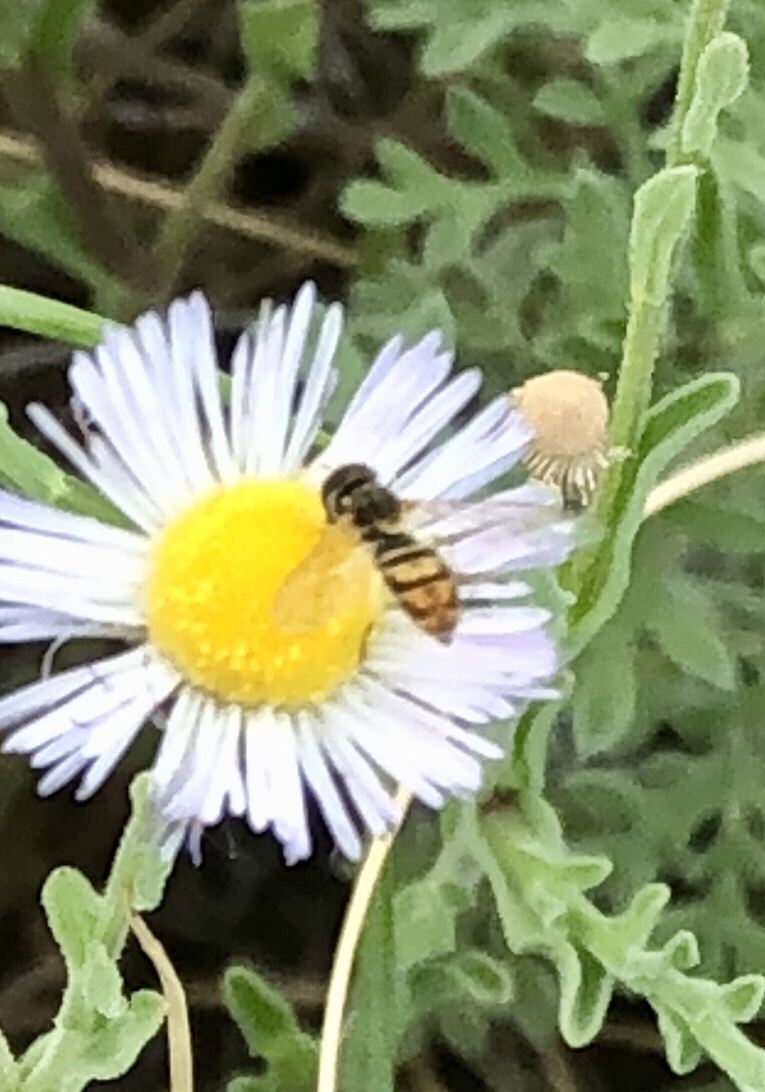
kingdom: Animalia
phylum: Arthropoda
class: Insecta
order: Diptera
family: Syrphidae
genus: Toxomerus
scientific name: Toxomerus marginatus
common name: Syrphid fly
